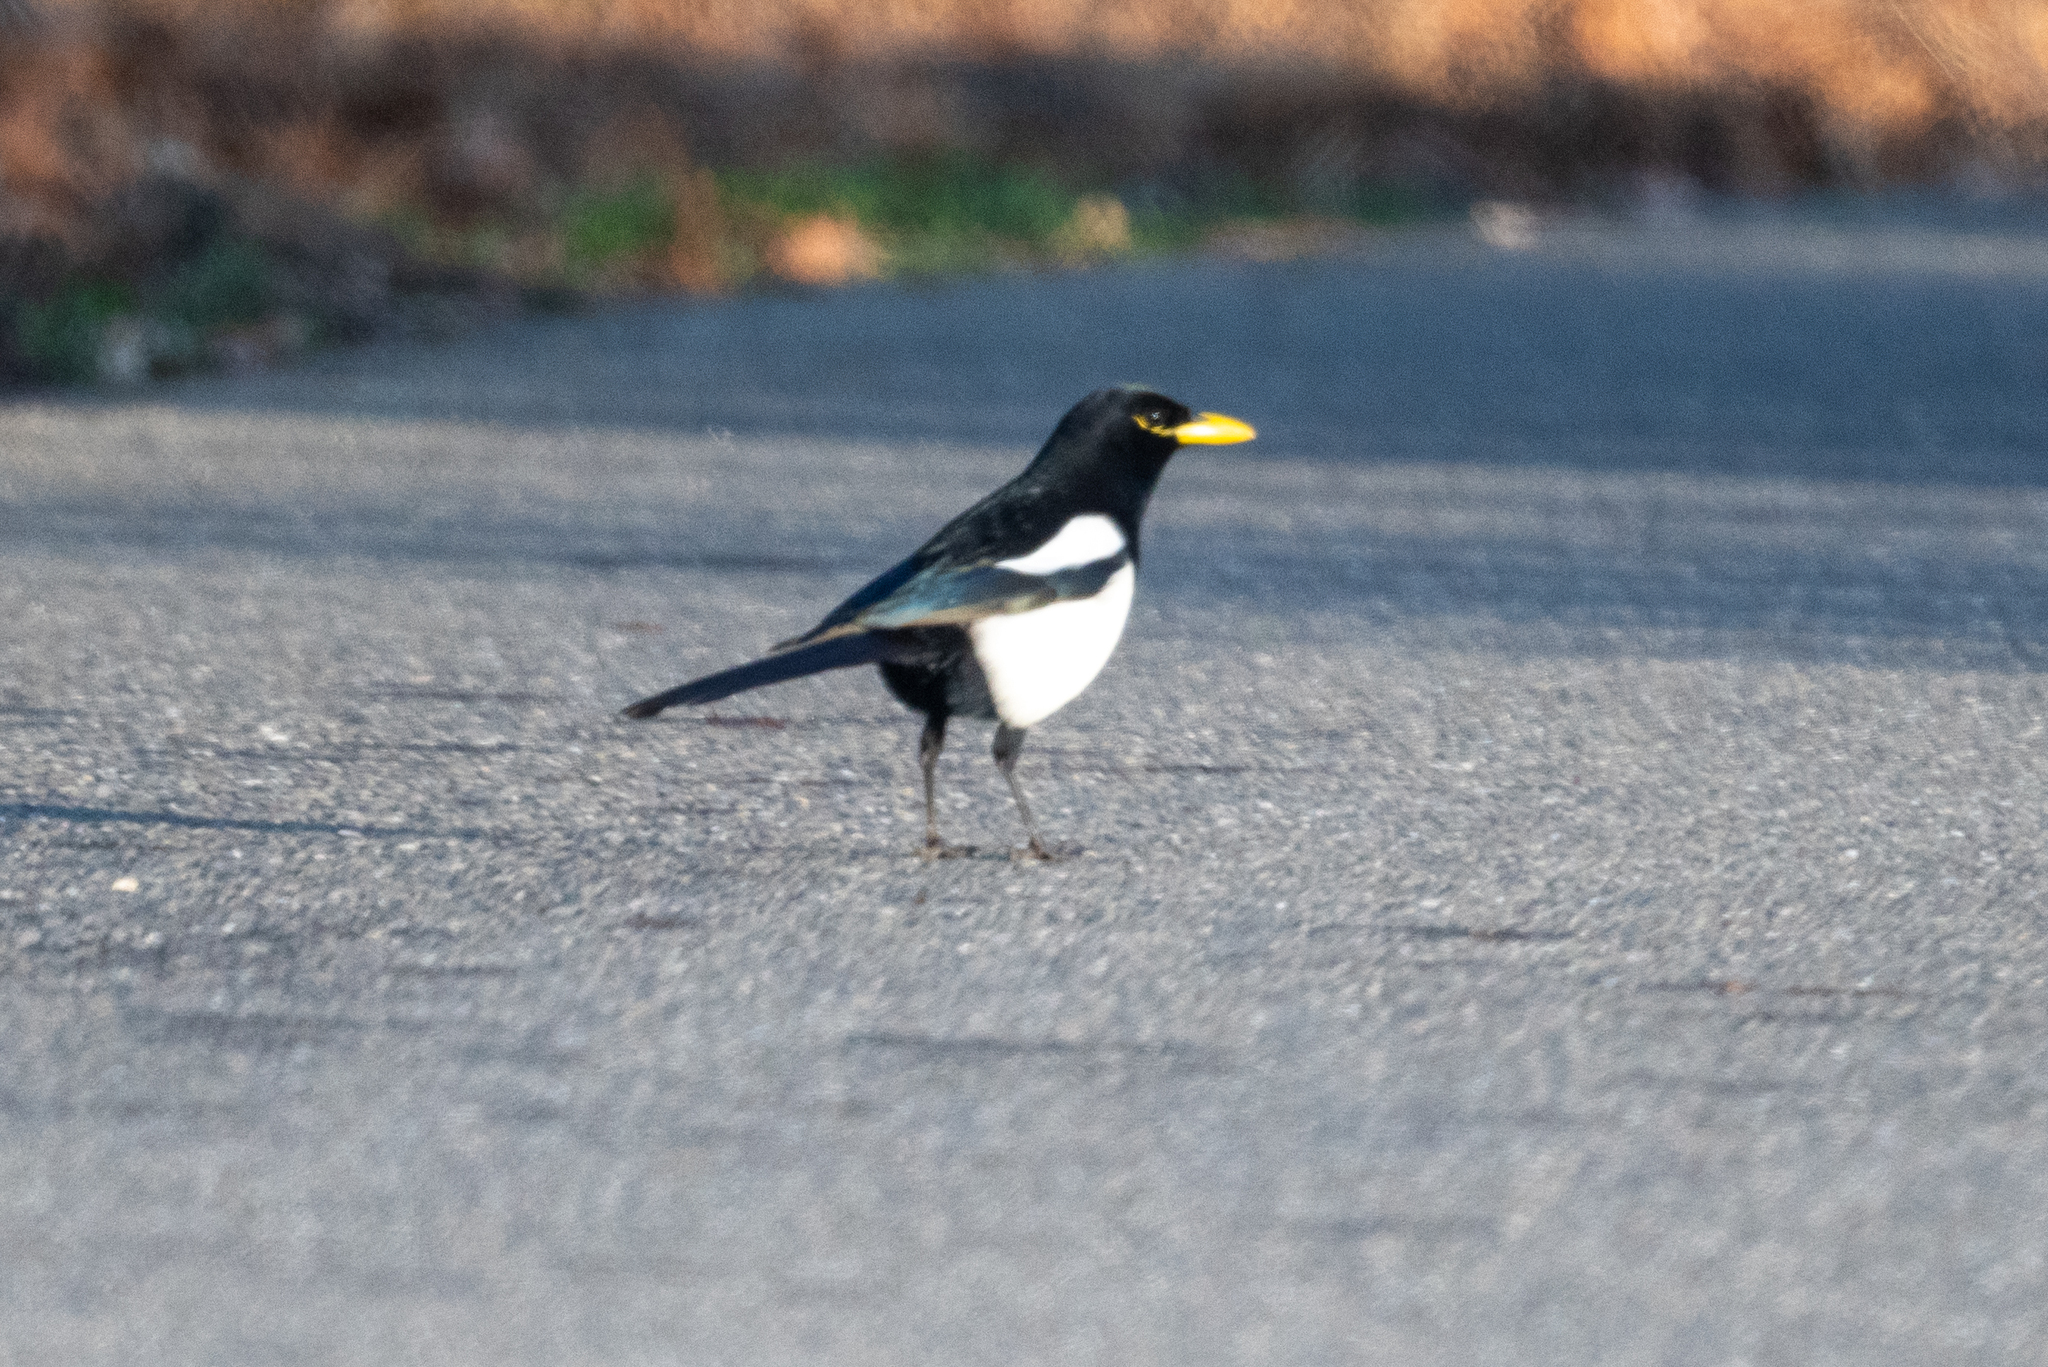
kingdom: Animalia
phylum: Chordata
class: Aves
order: Passeriformes
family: Corvidae
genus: Pica
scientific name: Pica nuttalli
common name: Yellow-billed magpie
